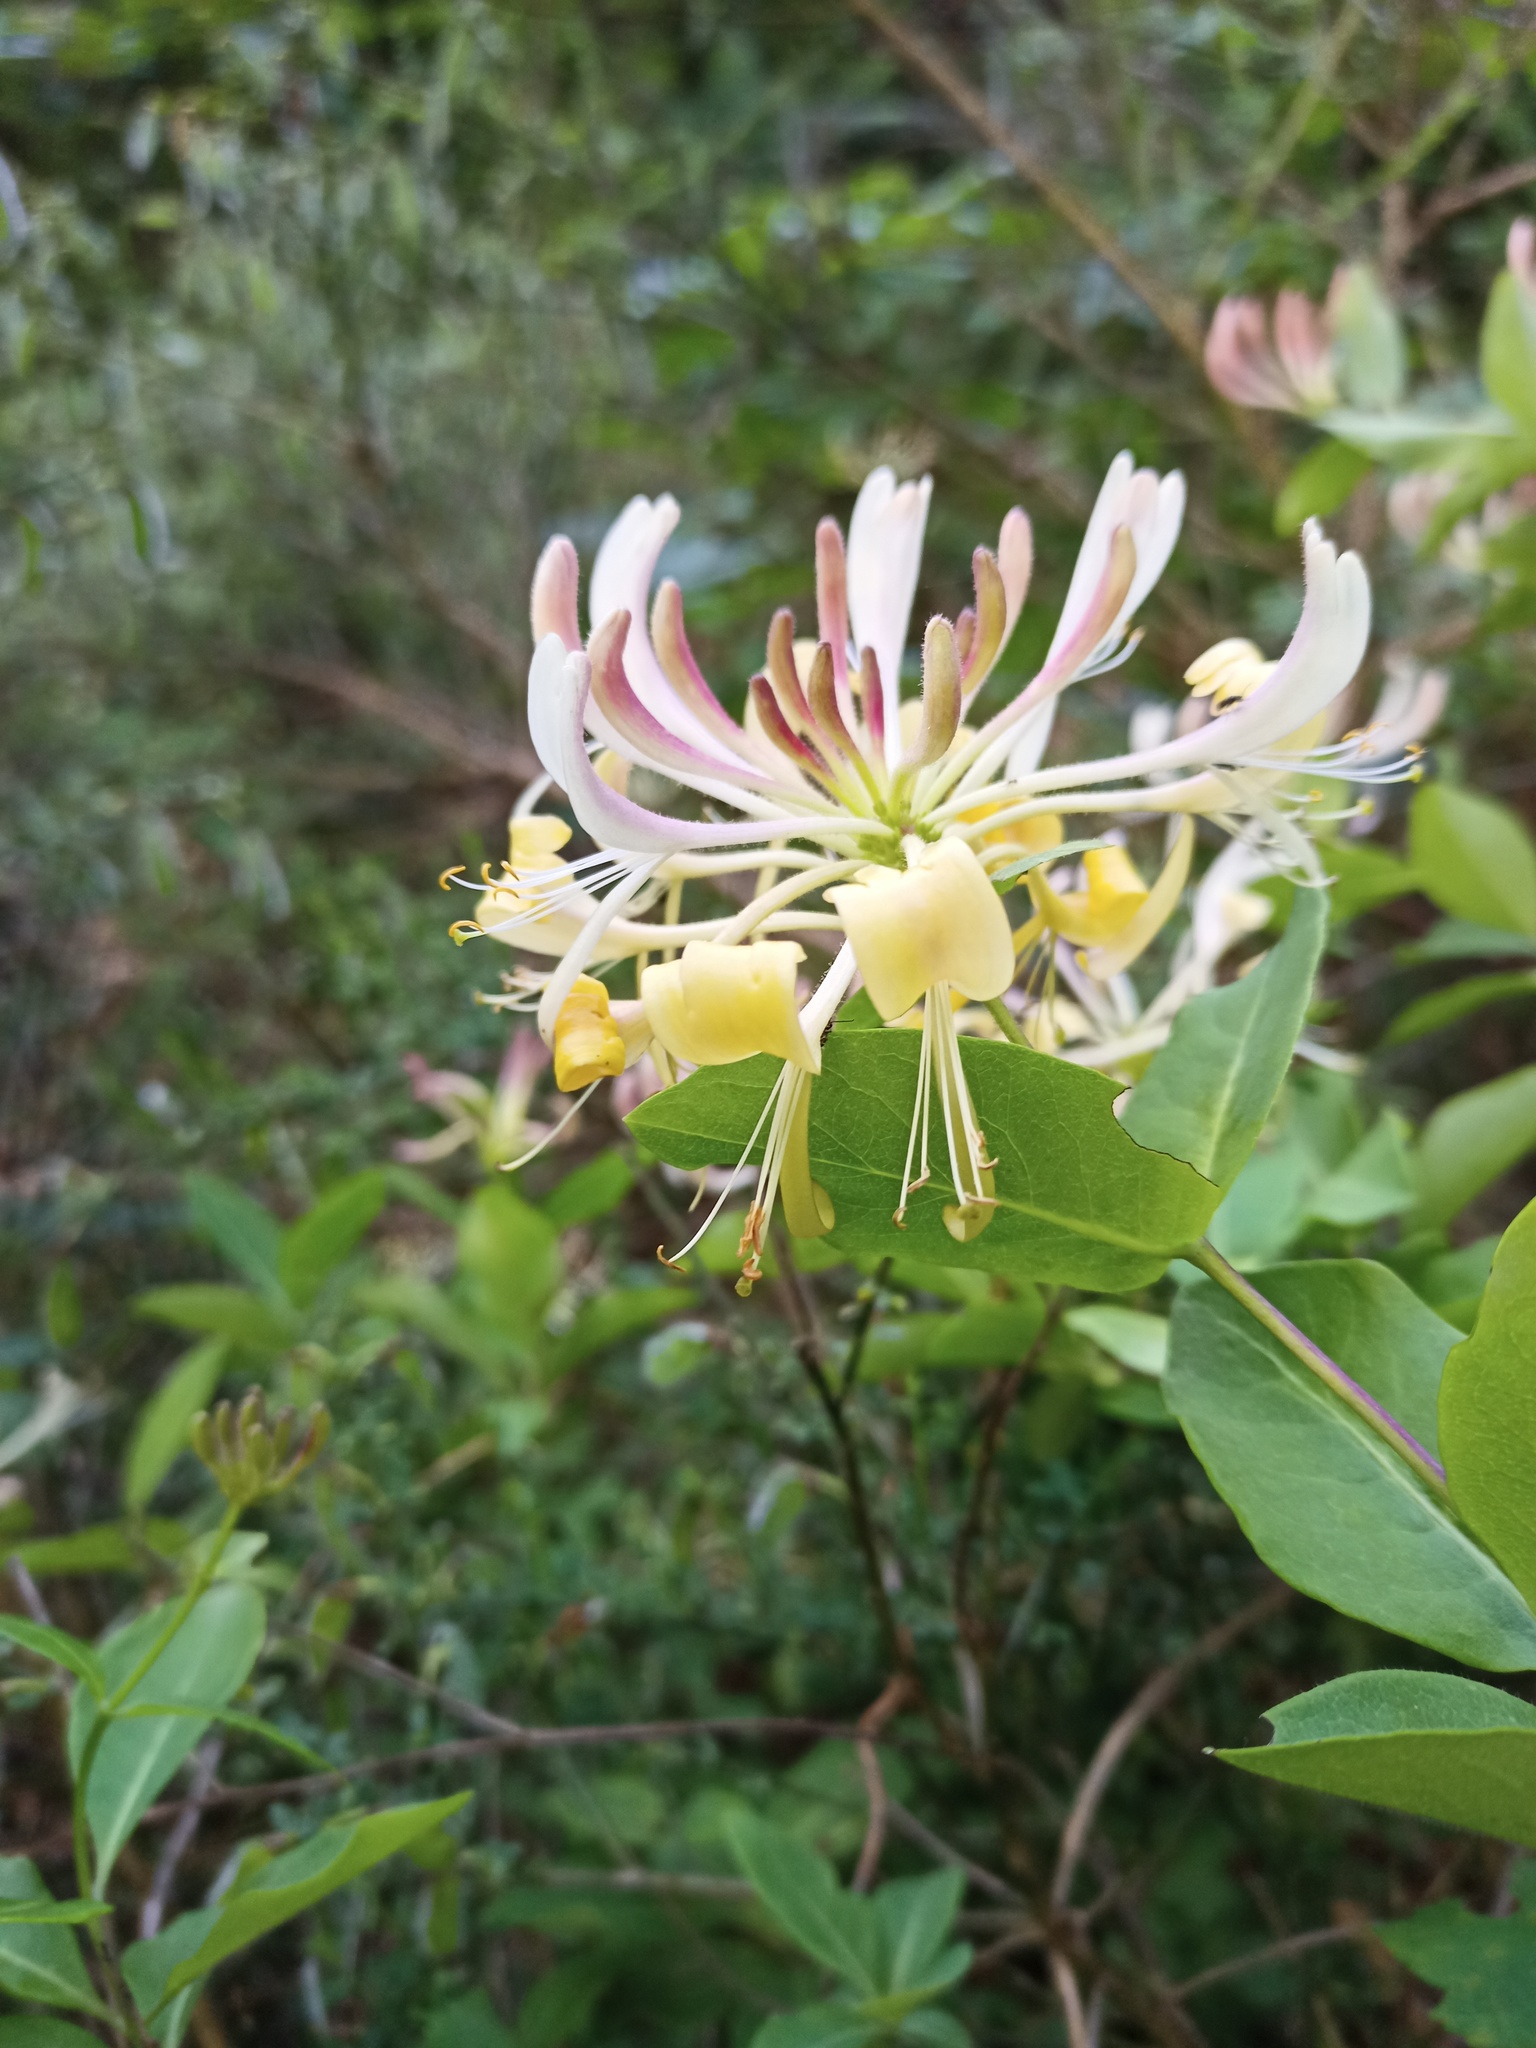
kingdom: Plantae
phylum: Tracheophyta
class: Magnoliopsida
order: Dipsacales
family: Caprifoliaceae
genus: Lonicera
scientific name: Lonicera periclymenum
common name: European honeysuckle
